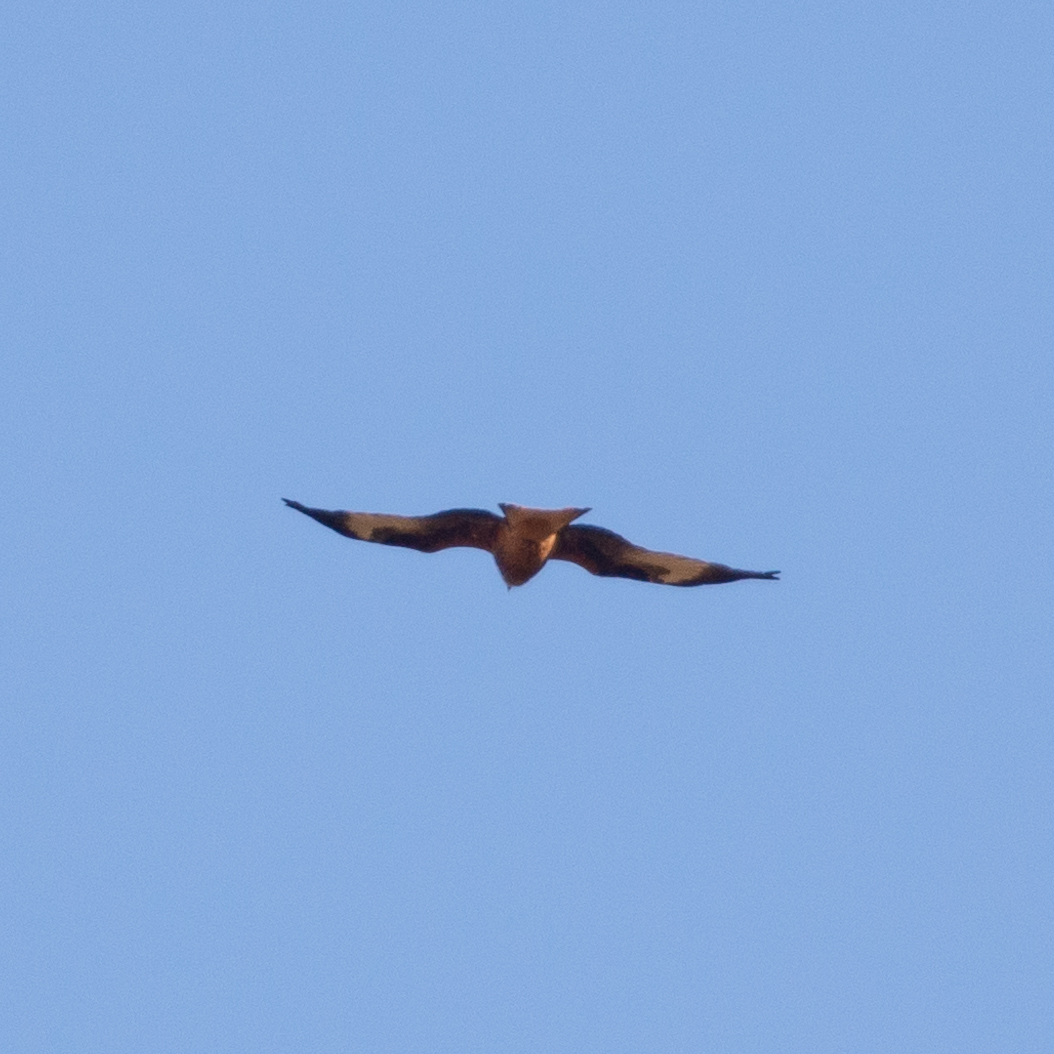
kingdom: Animalia
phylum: Chordata
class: Aves
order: Accipitriformes
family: Accipitridae
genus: Milvus
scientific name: Milvus milvus
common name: Red kite
